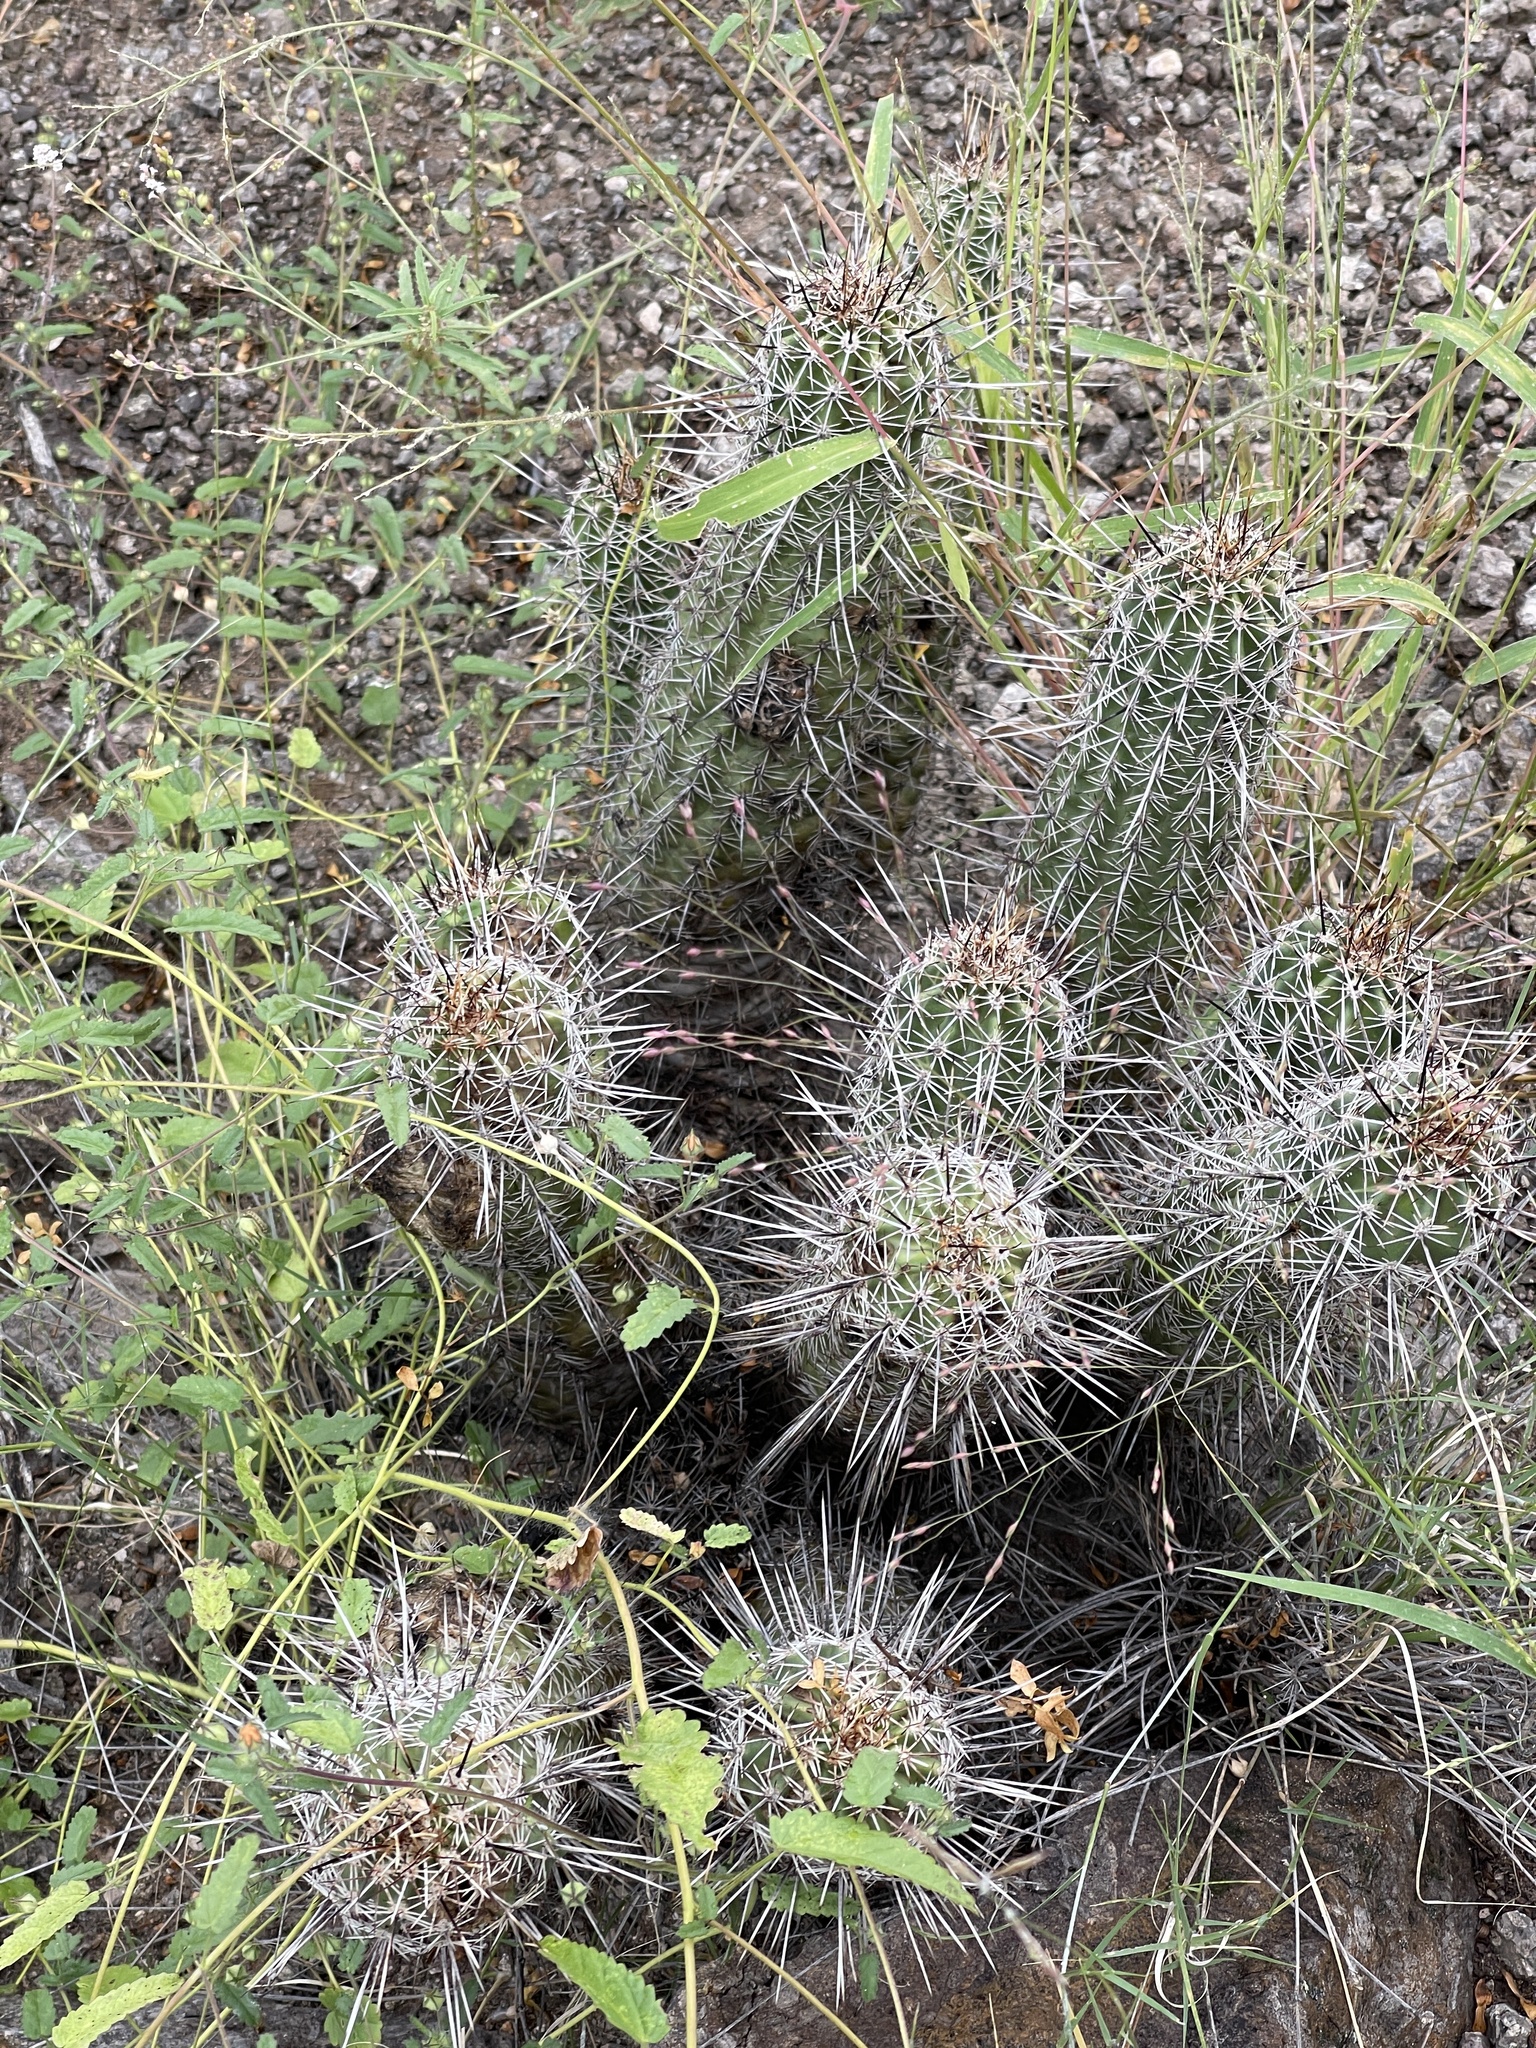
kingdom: Plantae
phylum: Tracheophyta
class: Magnoliopsida
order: Caryophyllales
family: Cactaceae
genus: Echinocereus
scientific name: Echinocereus fasciculatus
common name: Bundle hedgehog
